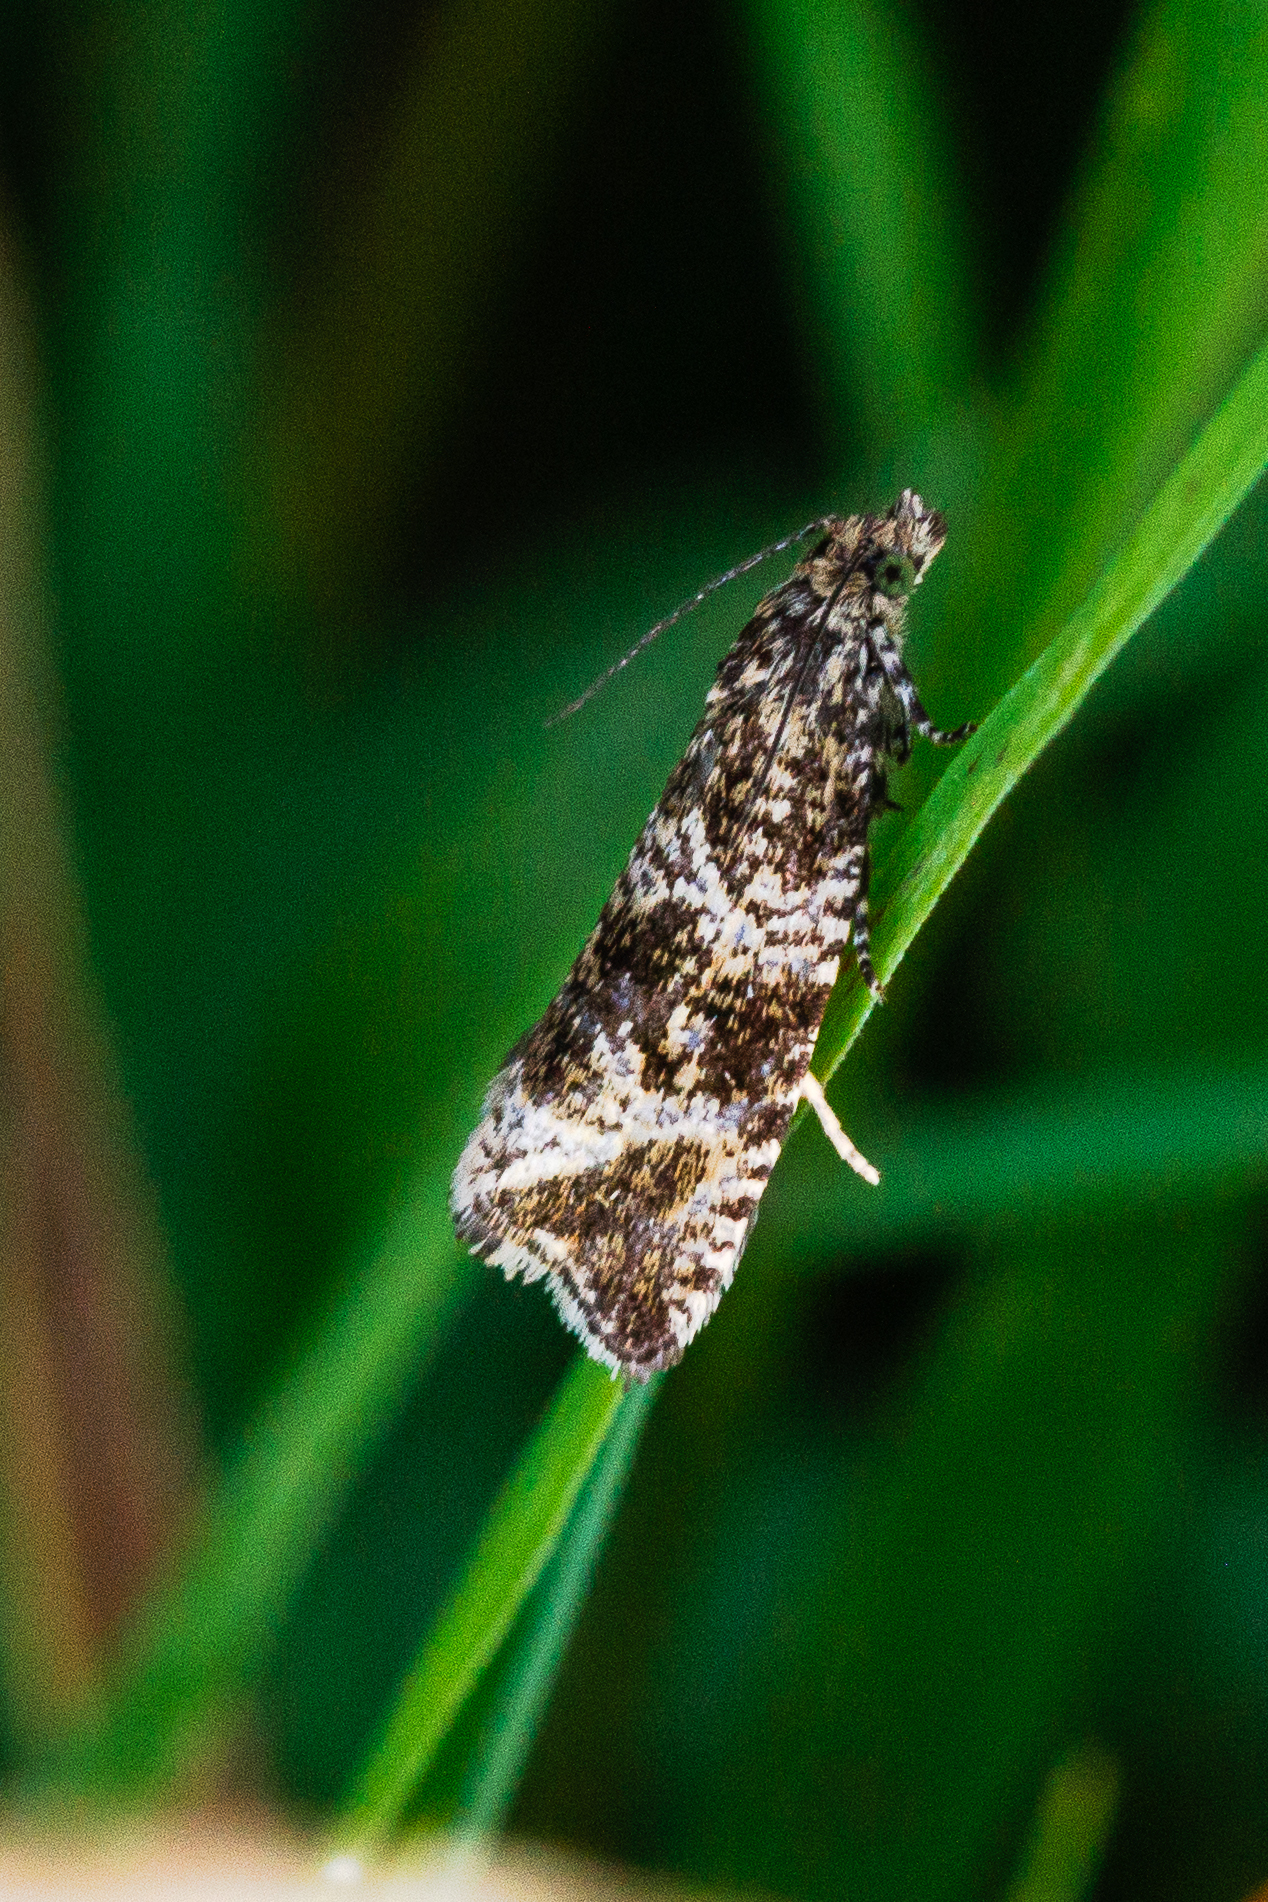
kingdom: Animalia
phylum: Arthropoda
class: Insecta
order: Lepidoptera
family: Tortricidae
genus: Syricoris
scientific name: Syricoris lacunana
